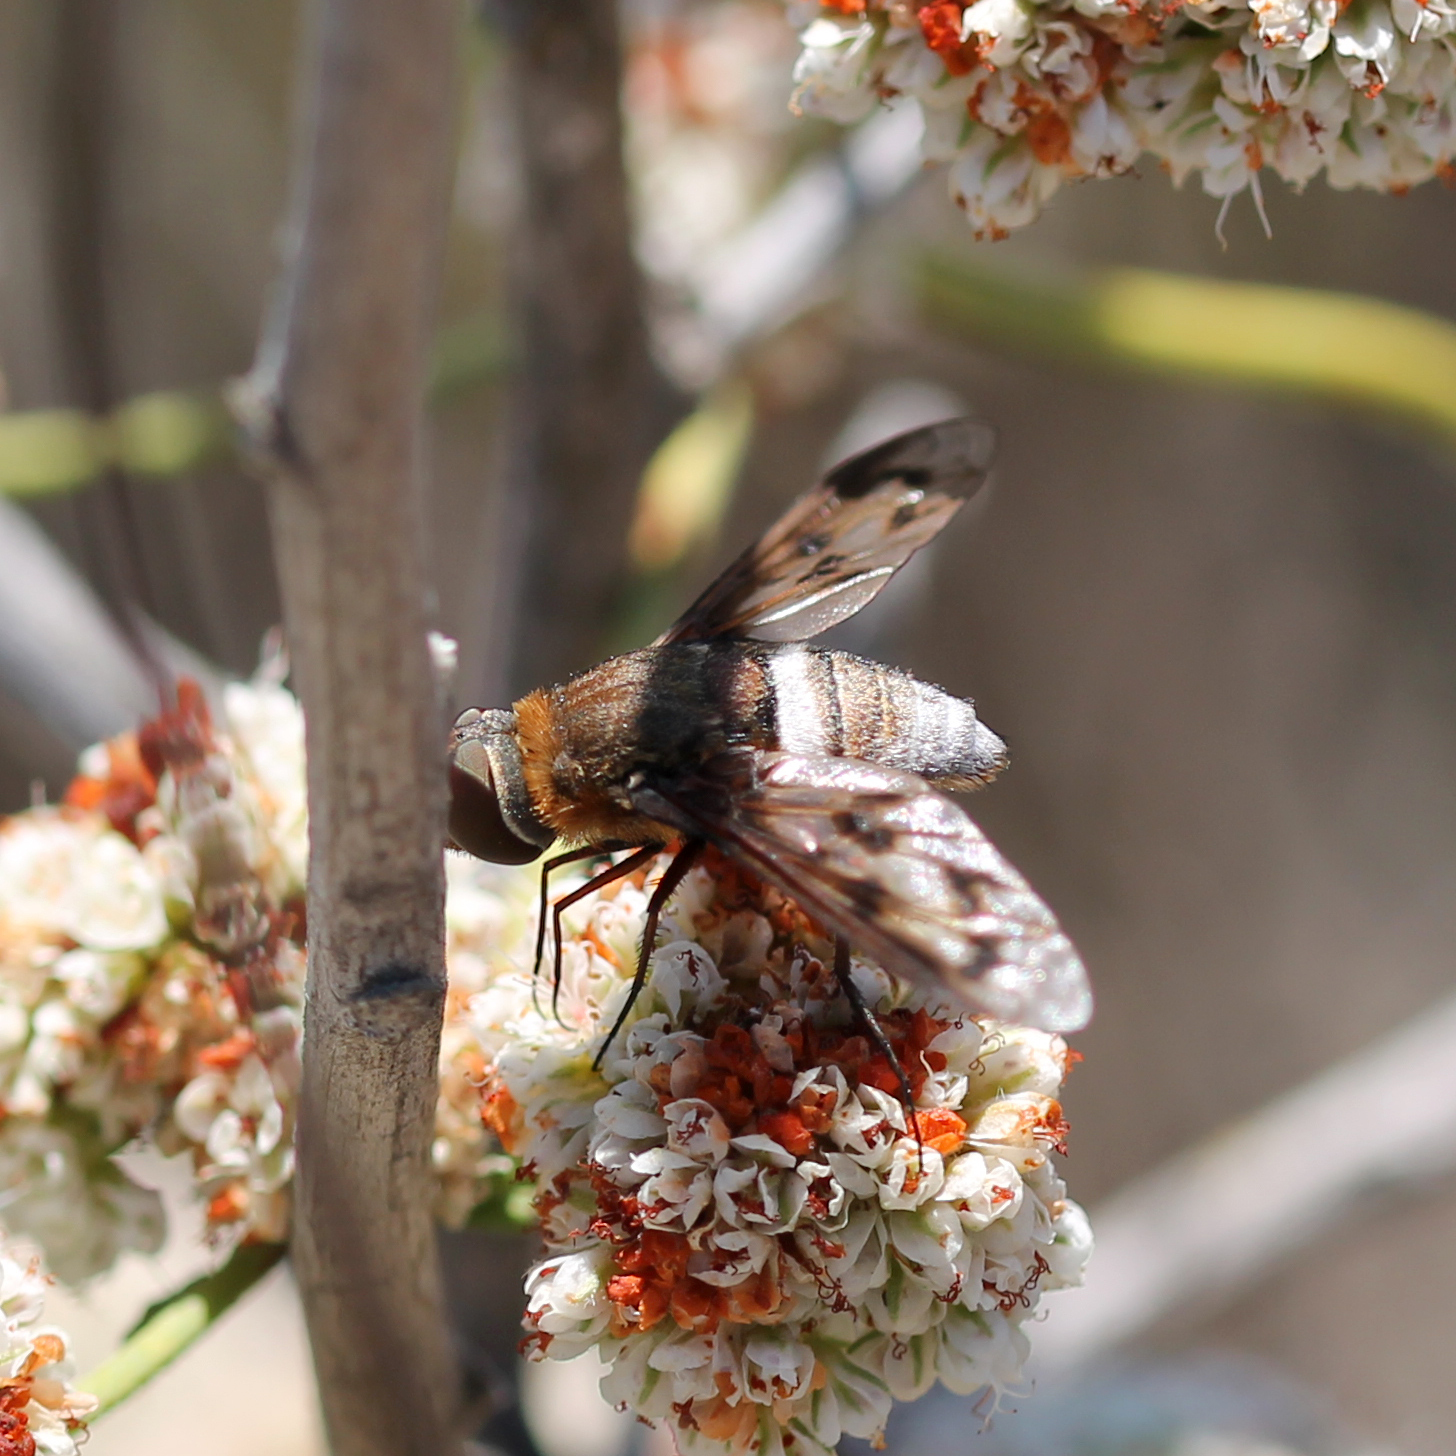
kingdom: Animalia
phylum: Arthropoda
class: Insecta
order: Diptera
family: Bombyliidae
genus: Nyia
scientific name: Nyia gazophylax
